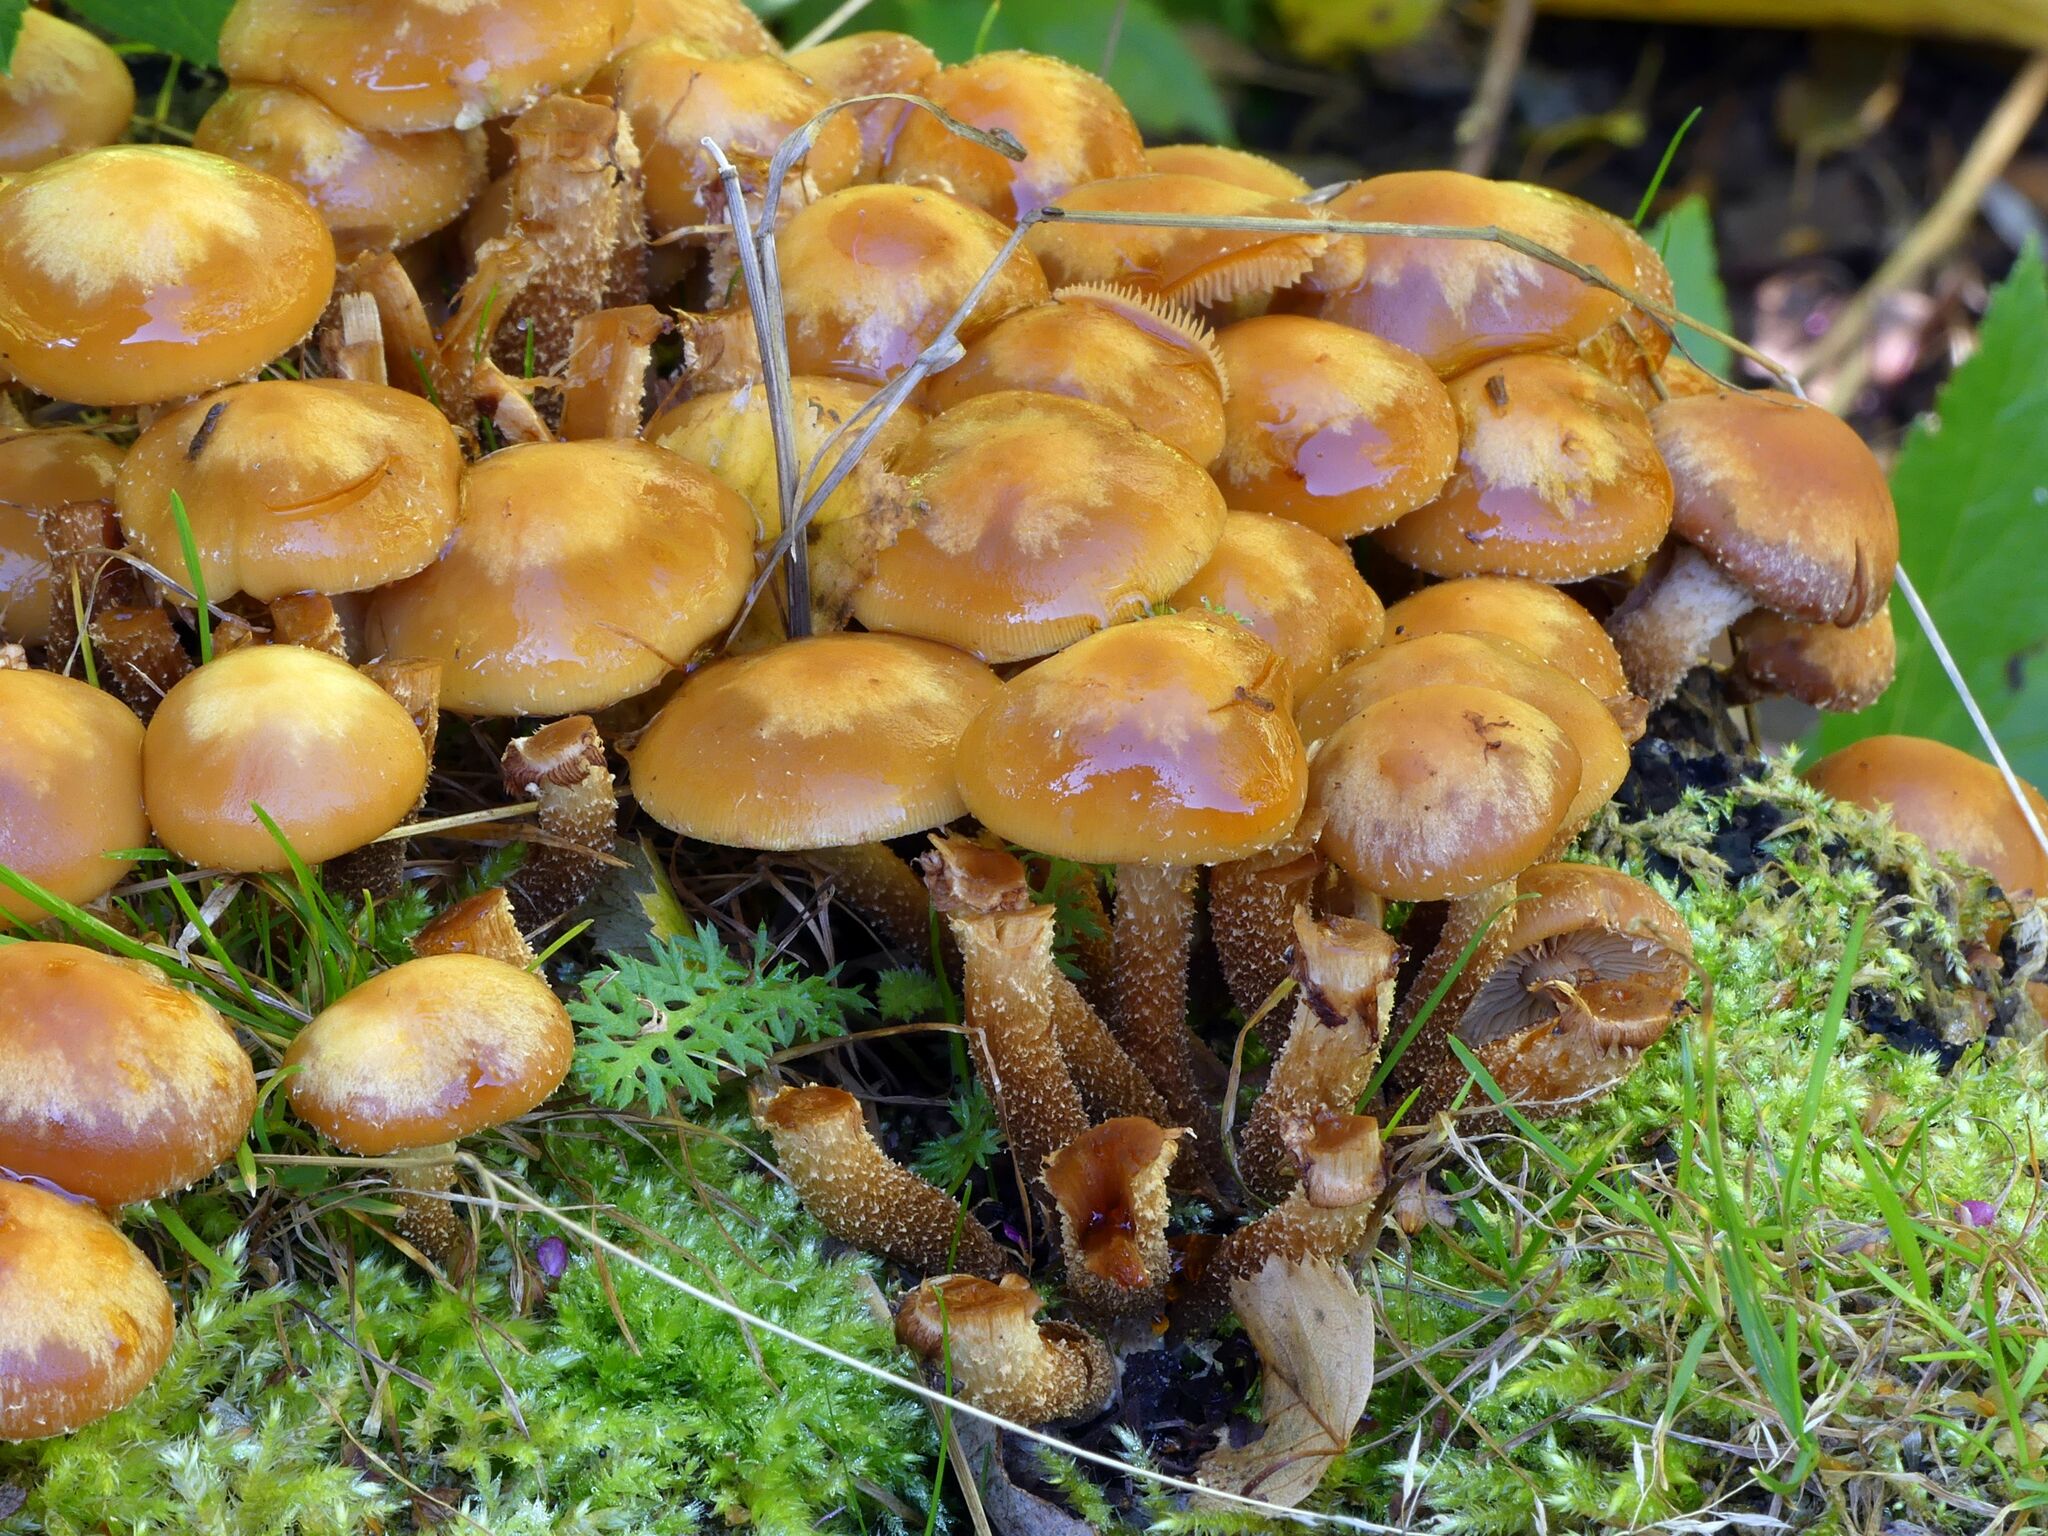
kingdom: Fungi
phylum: Basidiomycota
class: Agaricomycetes
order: Agaricales
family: Strophariaceae
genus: Kuehneromyces
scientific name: Kuehneromyces mutabilis
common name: Sheathed woodtuft
